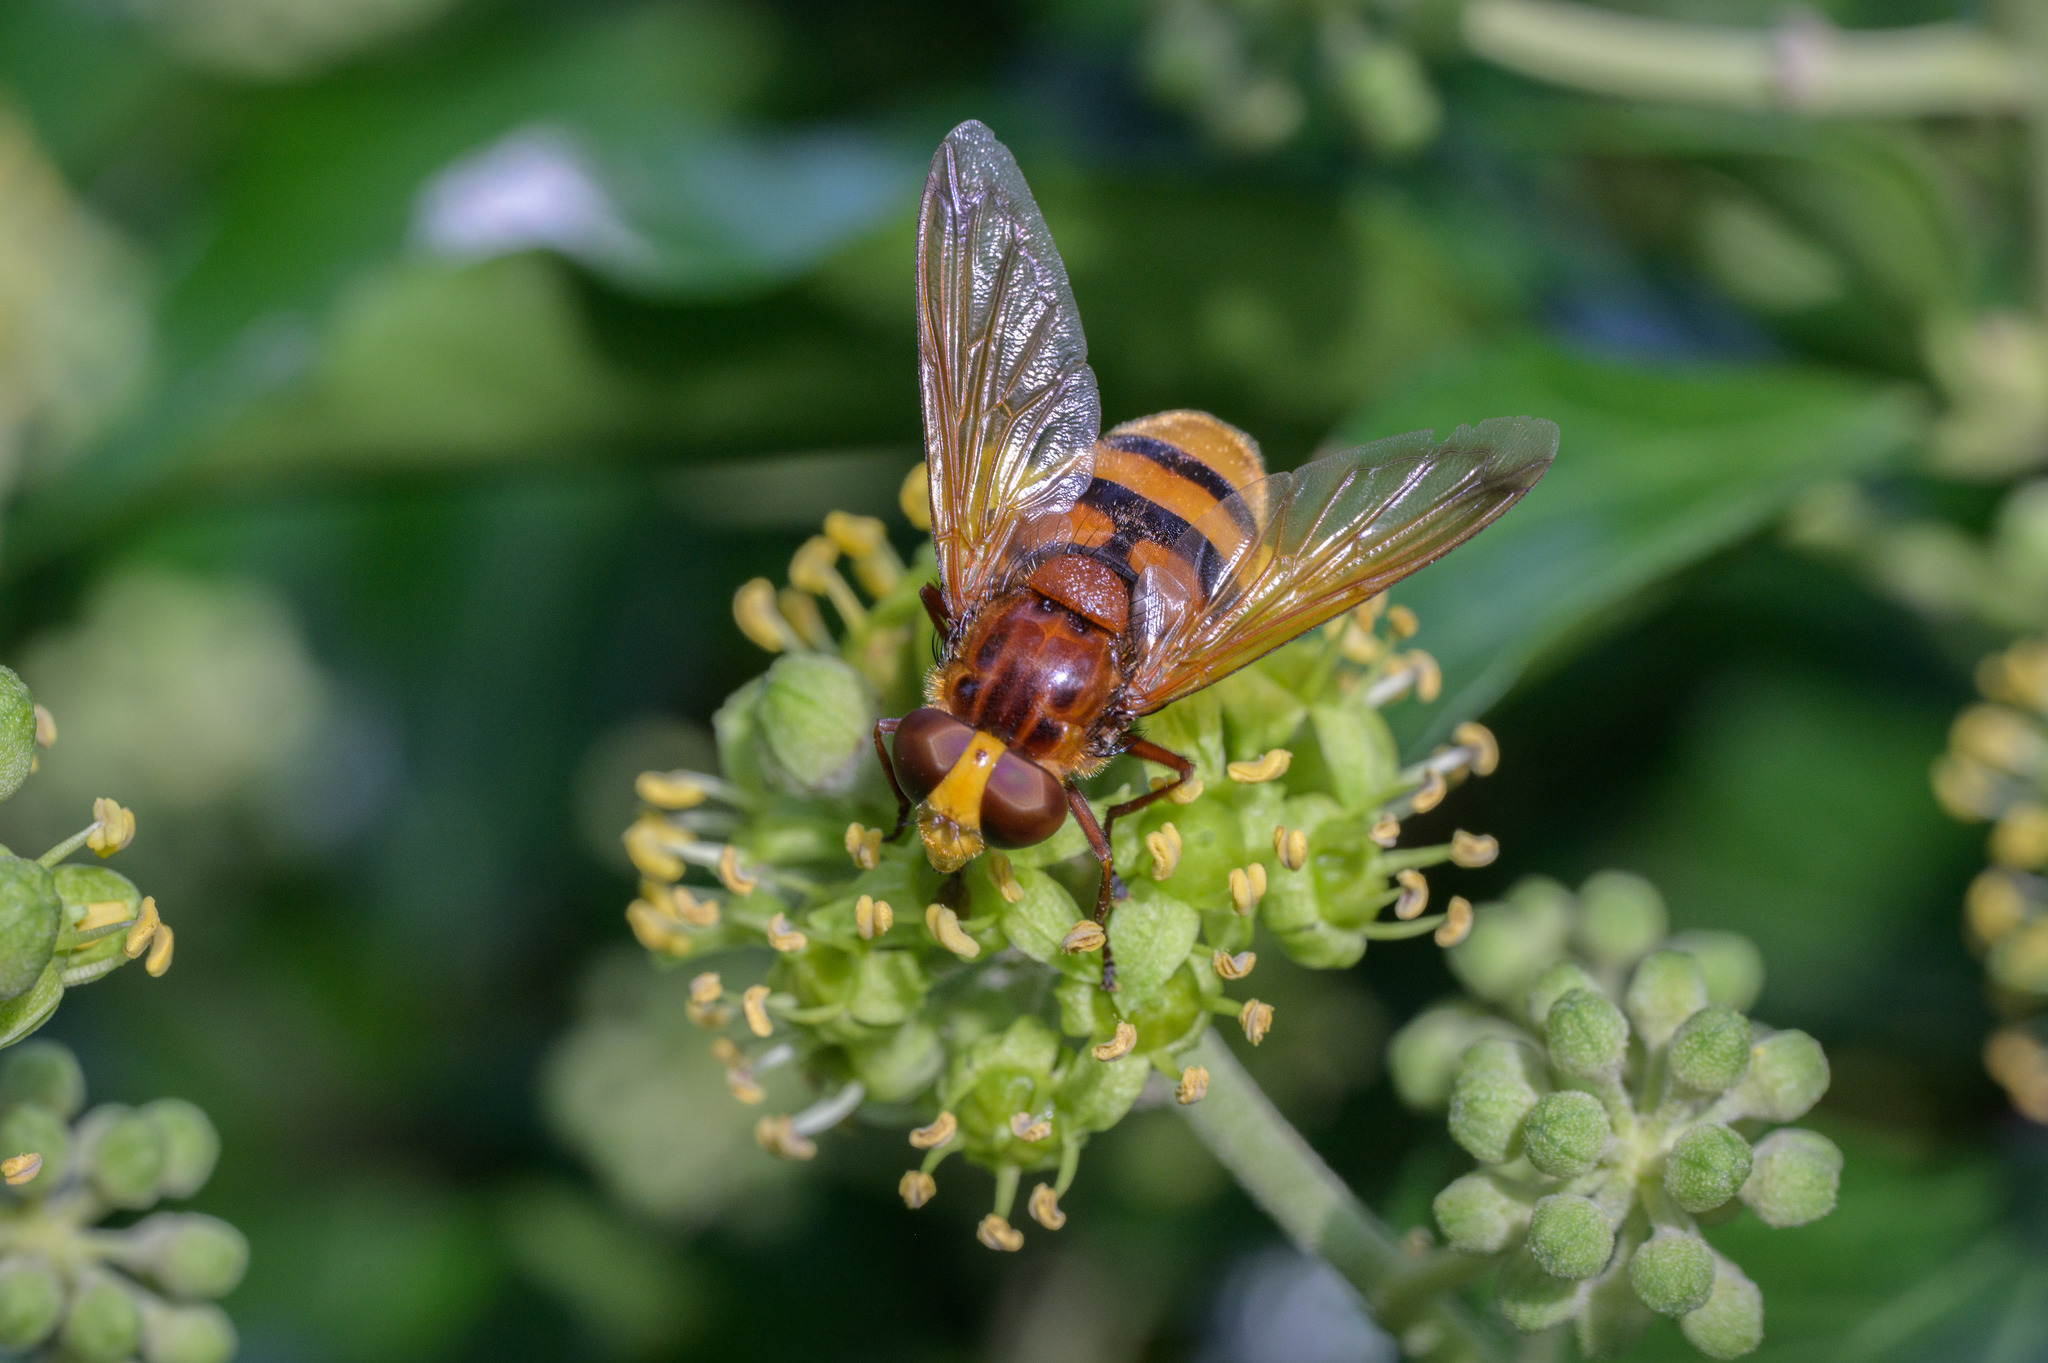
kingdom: Animalia
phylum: Arthropoda
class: Insecta
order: Diptera
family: Syrphidae
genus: Volucella
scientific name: Volucella zonaria
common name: Hornet hoverfly
